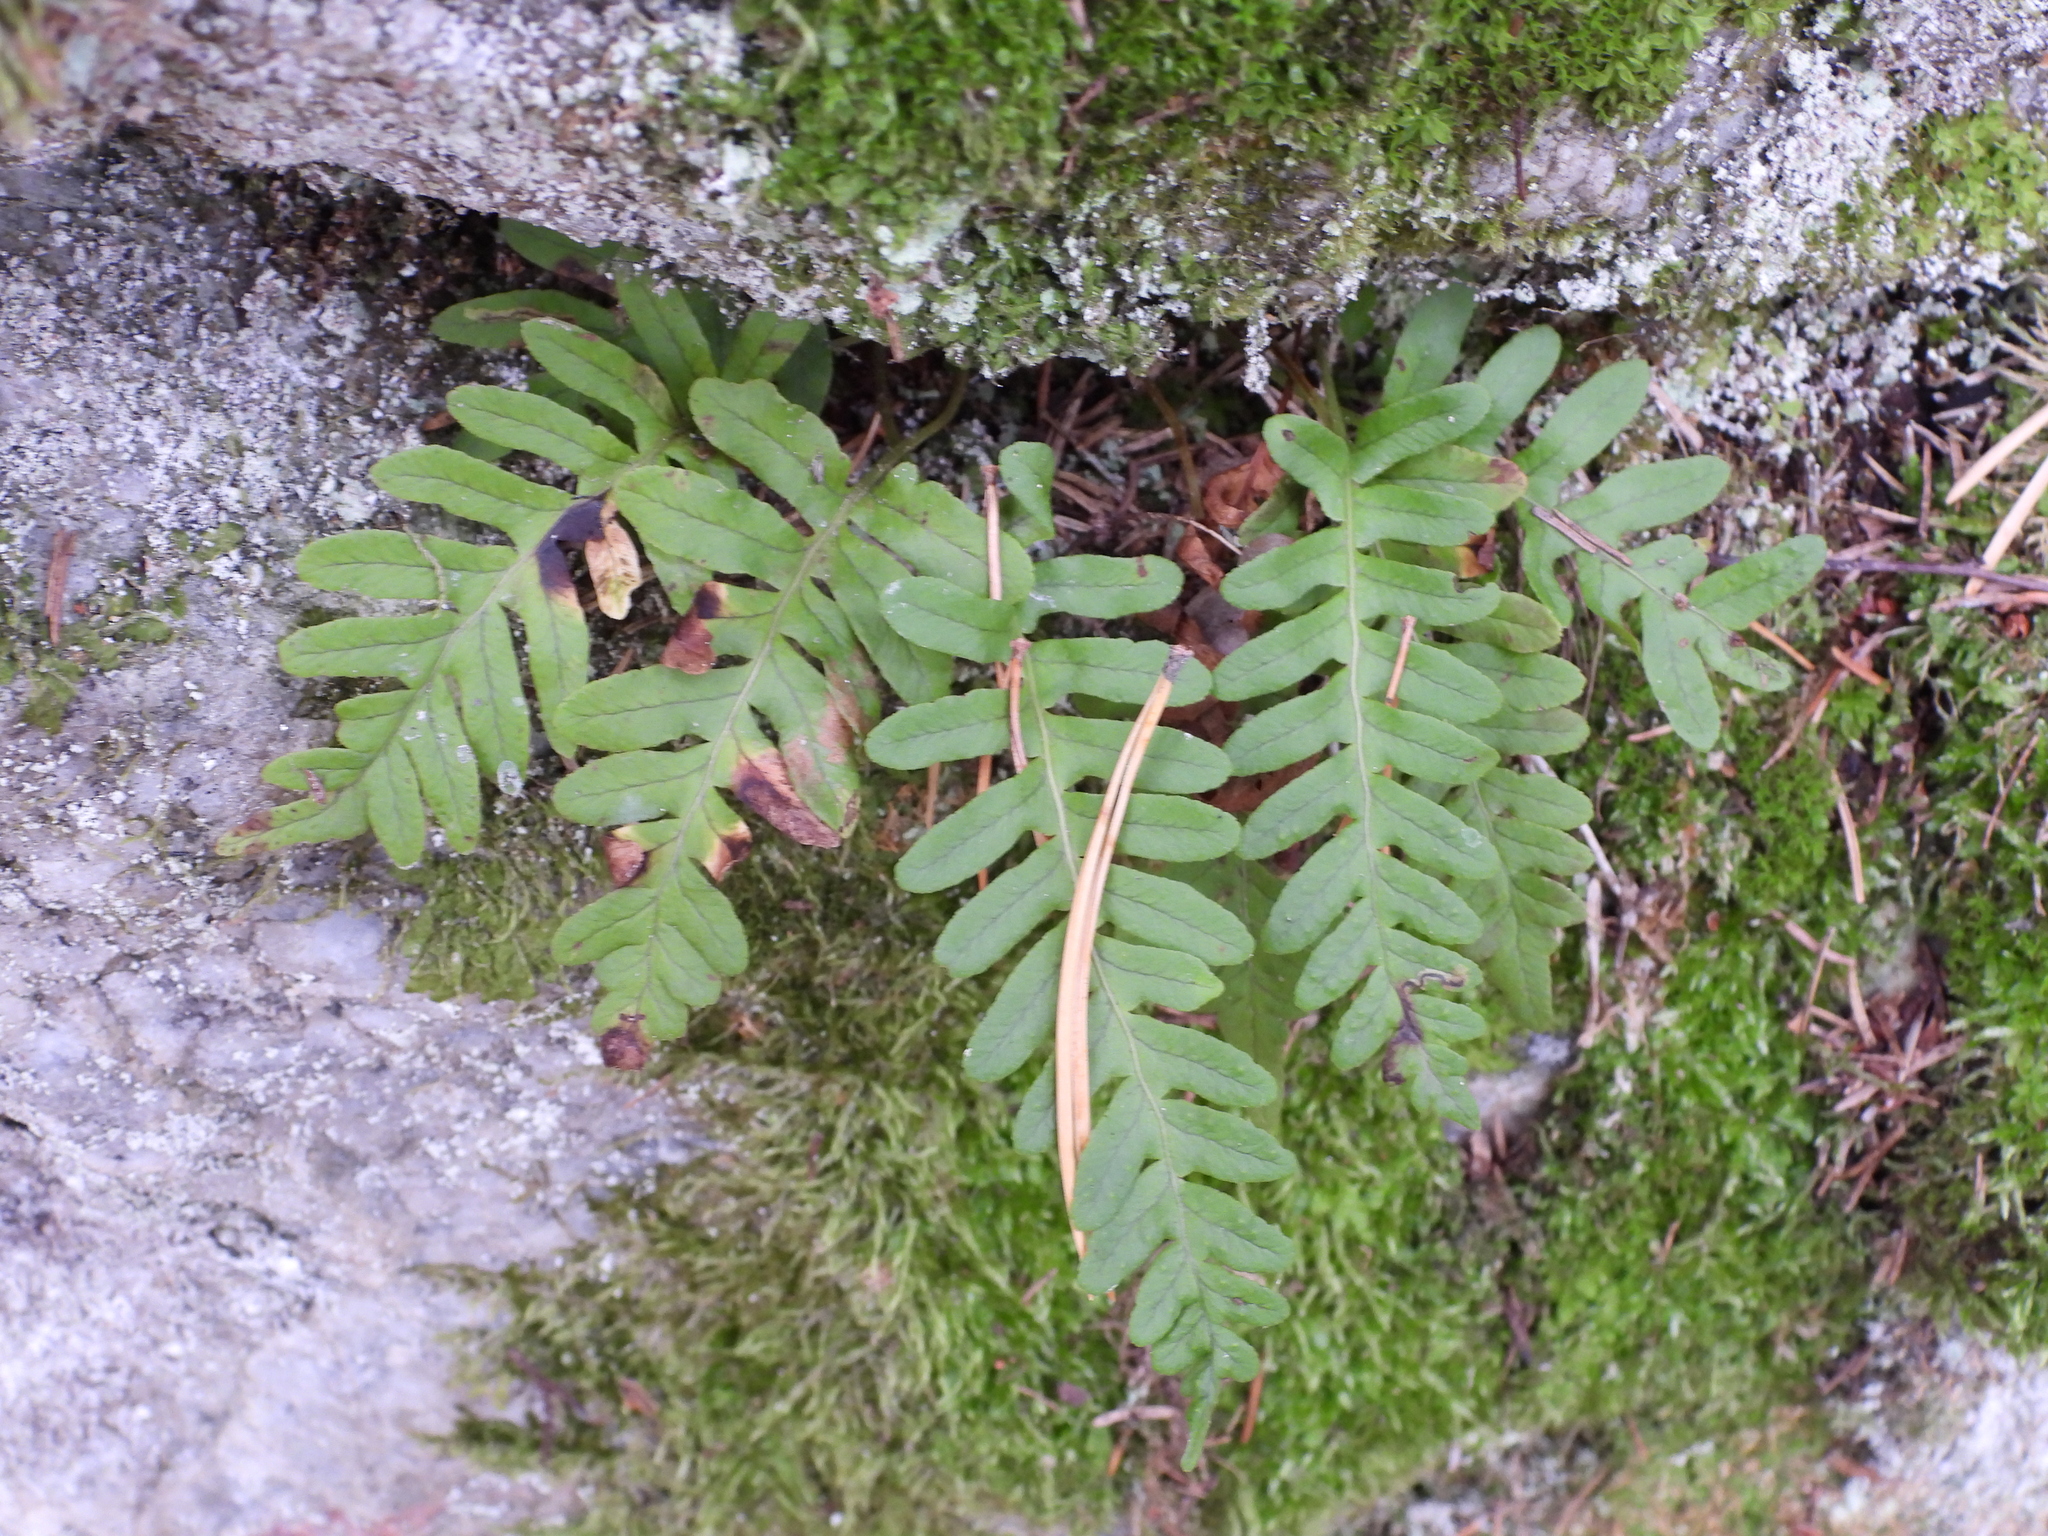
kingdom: Plantae
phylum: Tracheophyta
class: Polypodiopsida
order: Polypodiales
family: Polypodiaceae
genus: Polypodium
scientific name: Polypodium vulgare
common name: Common polypody
